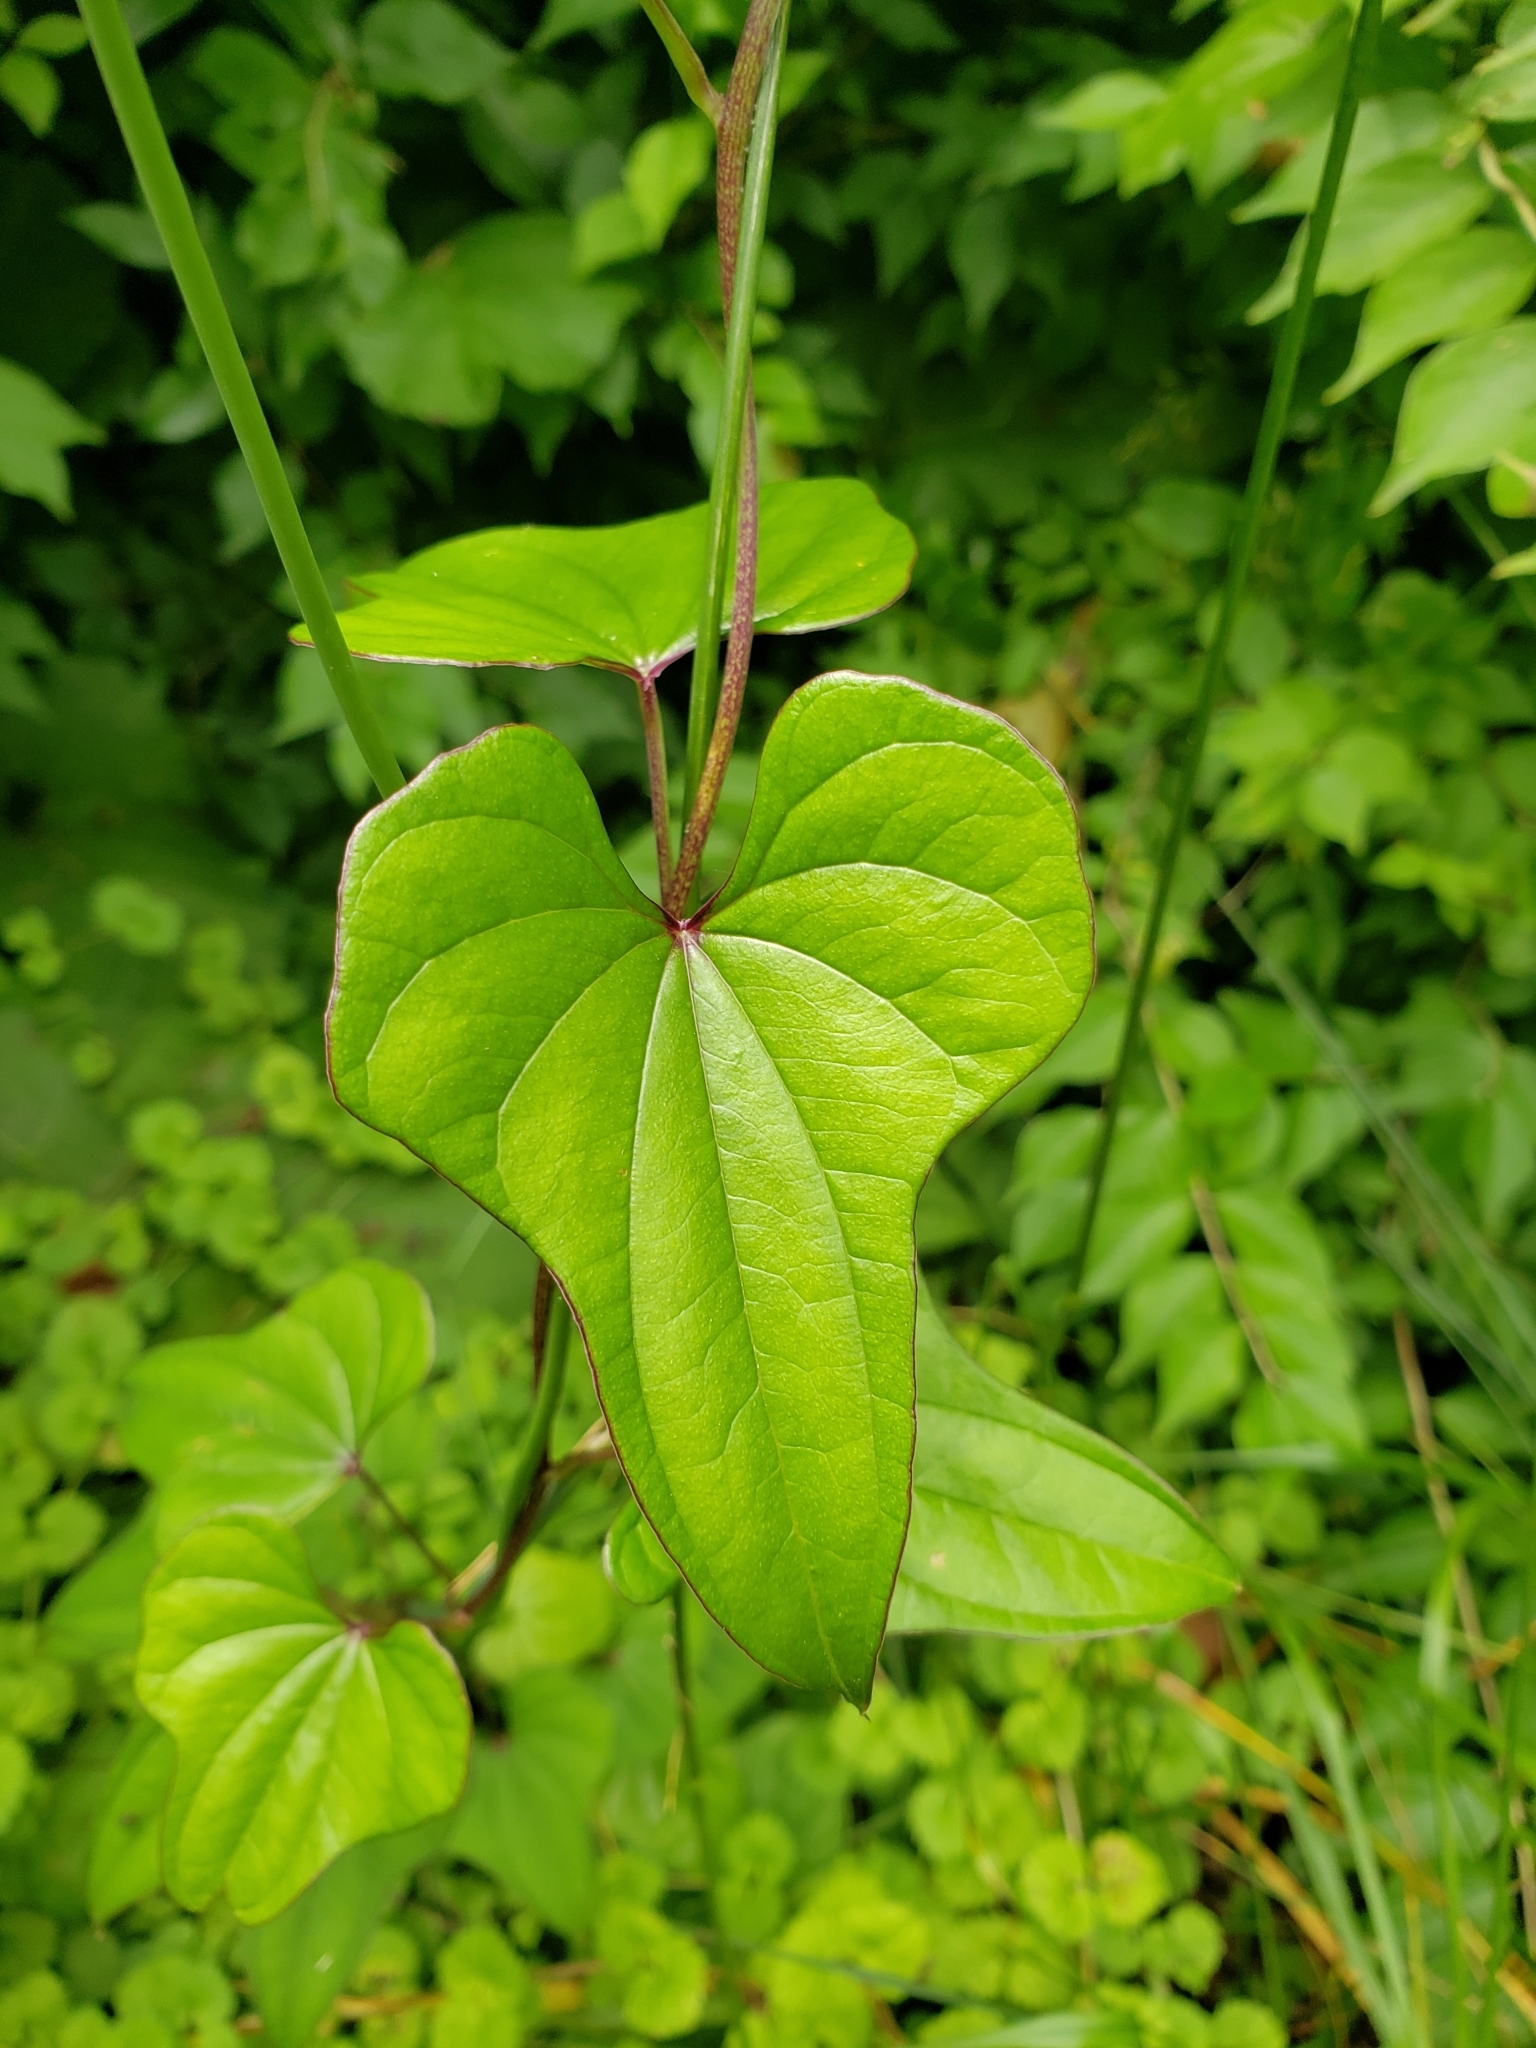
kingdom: Plantae
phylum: Tracheophyta
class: Liliopsida
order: Dioscoreales
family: Dioscoreaceae
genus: Dioscorea
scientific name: Dioscorea polystachya
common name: Chinese yam
